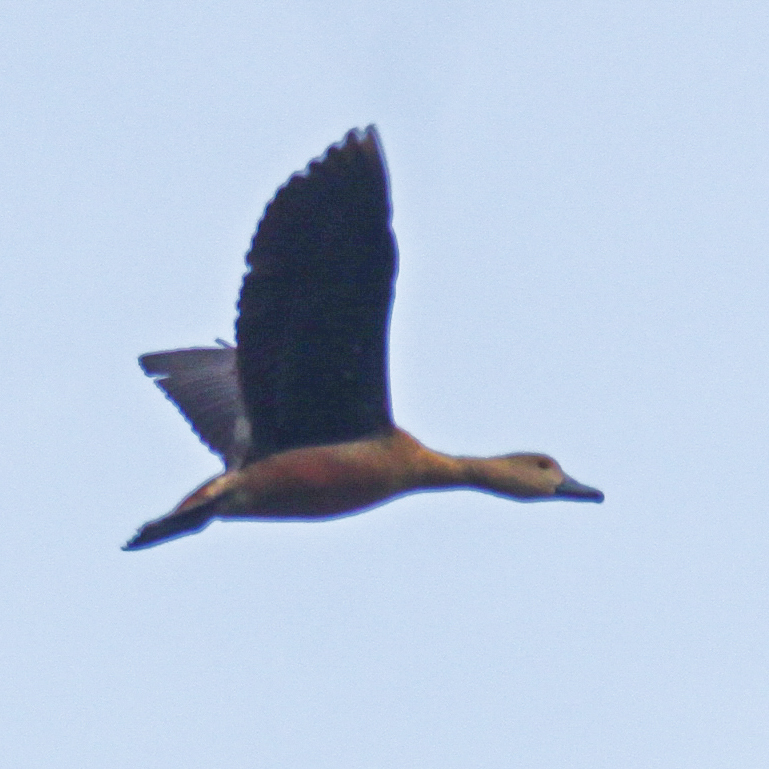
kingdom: Animalia
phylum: Chordata
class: Aves
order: Anseriformes
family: Anatidae
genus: Dendrocygna
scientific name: Dendrocygna javanica
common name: Lesser whistling-duck
